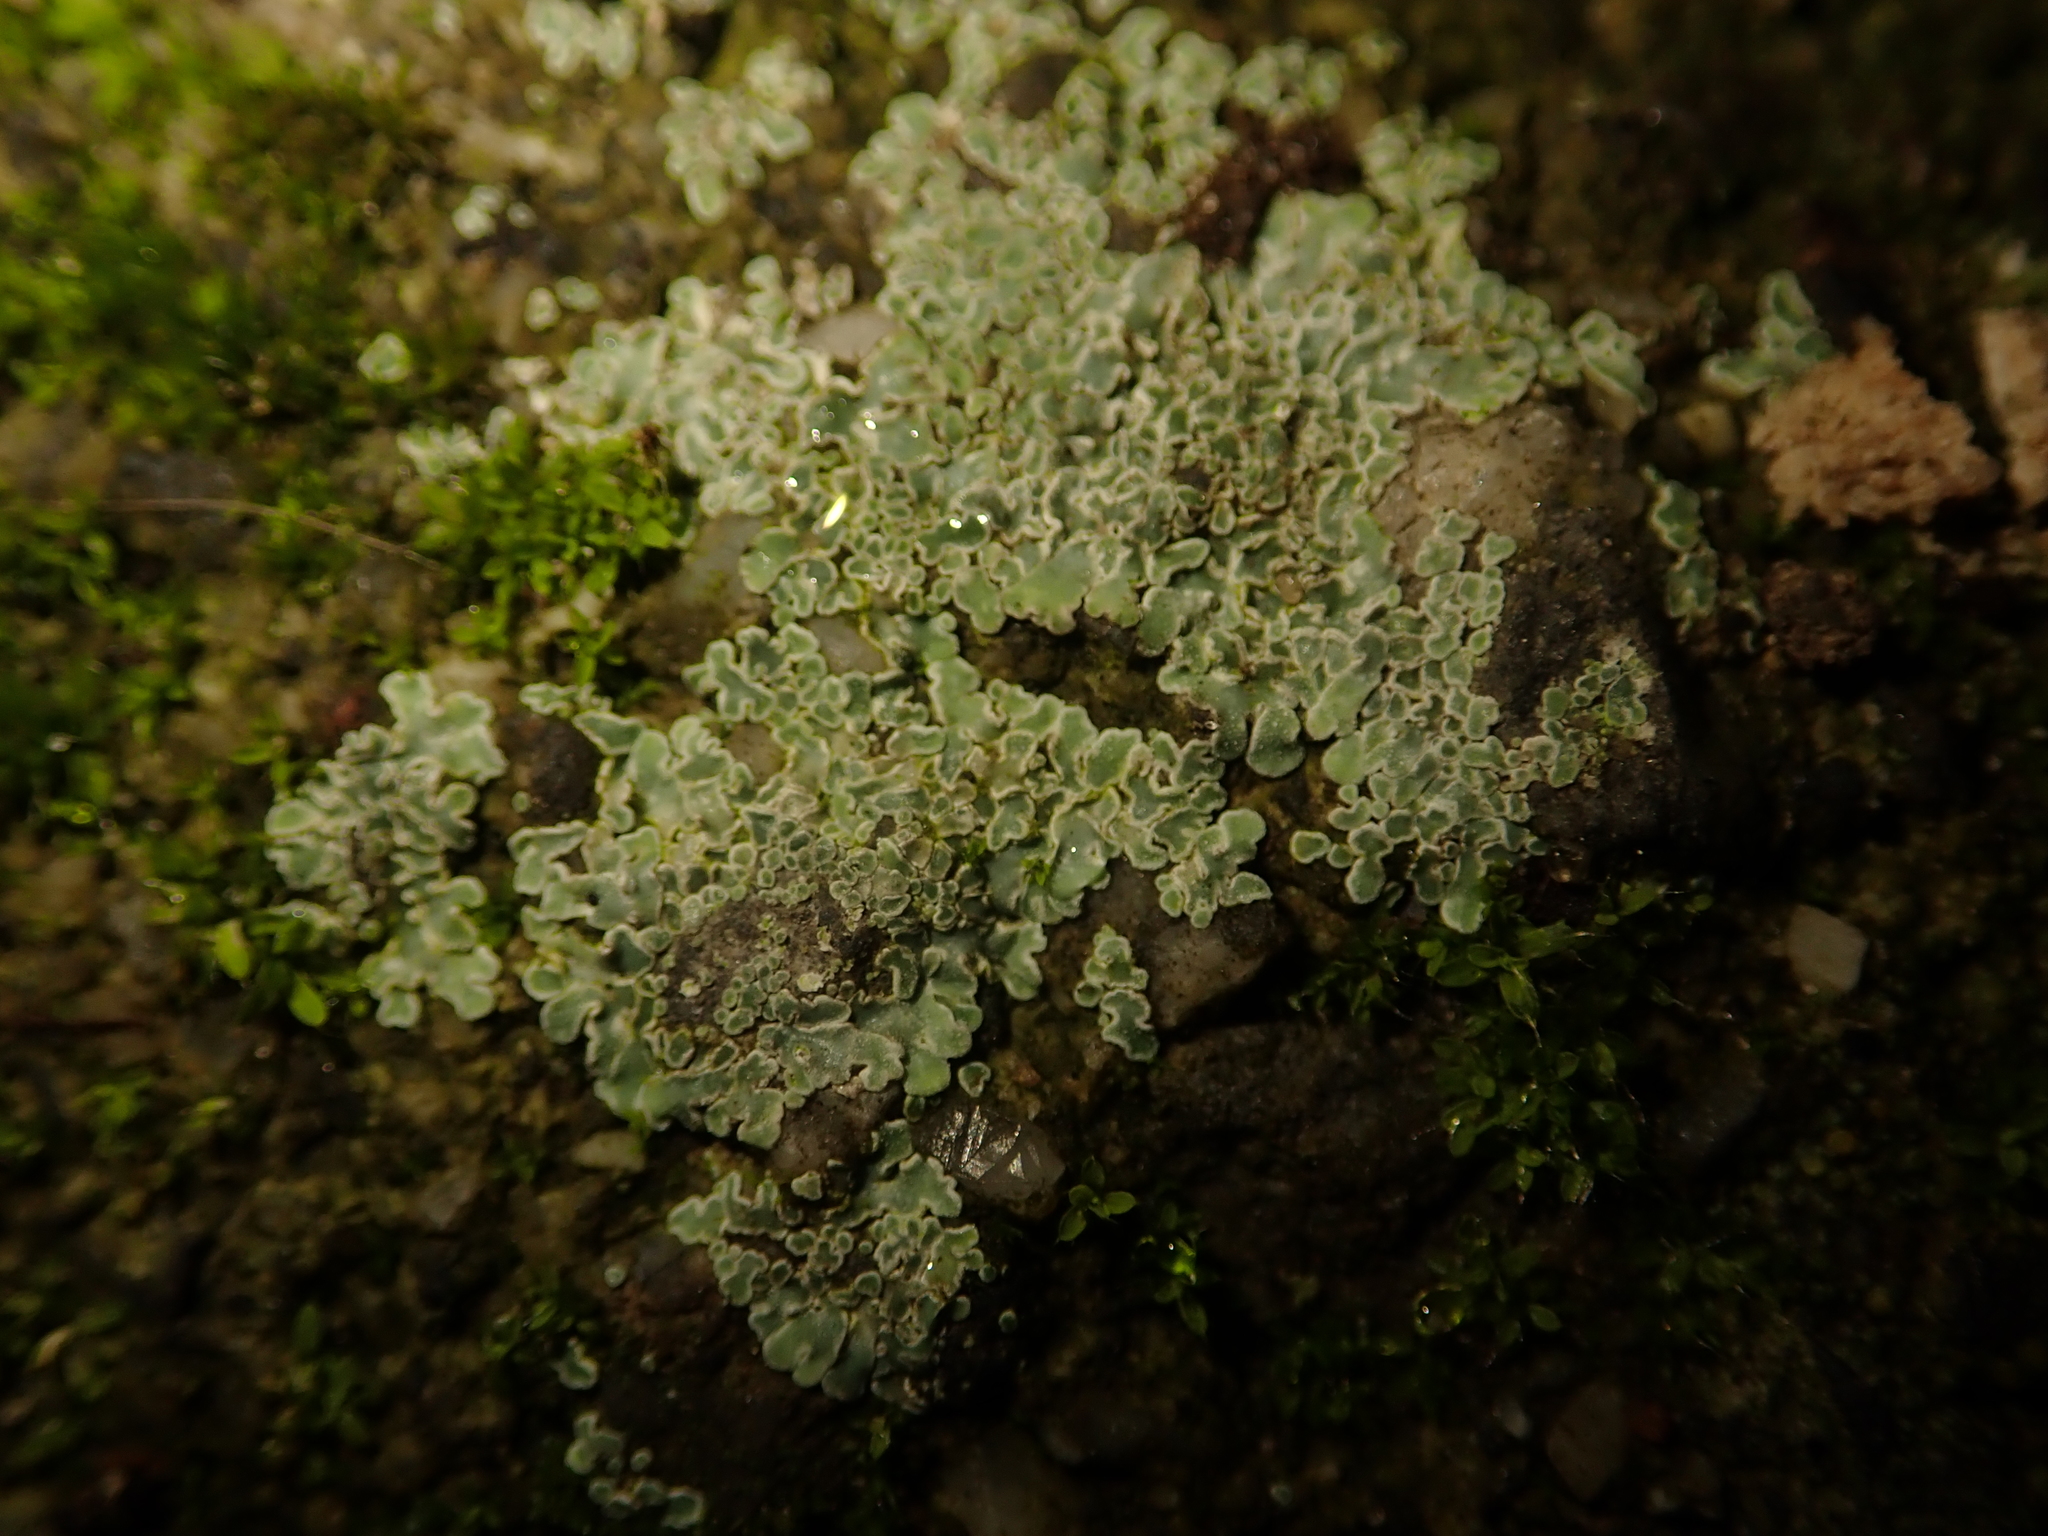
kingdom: Fungi
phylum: Ascomycota
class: Lecanoromycetes
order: Lecanorales
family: Lecanoraceae
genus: Protoparmeliopsis
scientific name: Protoparmeliopsis muralis
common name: Stonewall rim lichen
